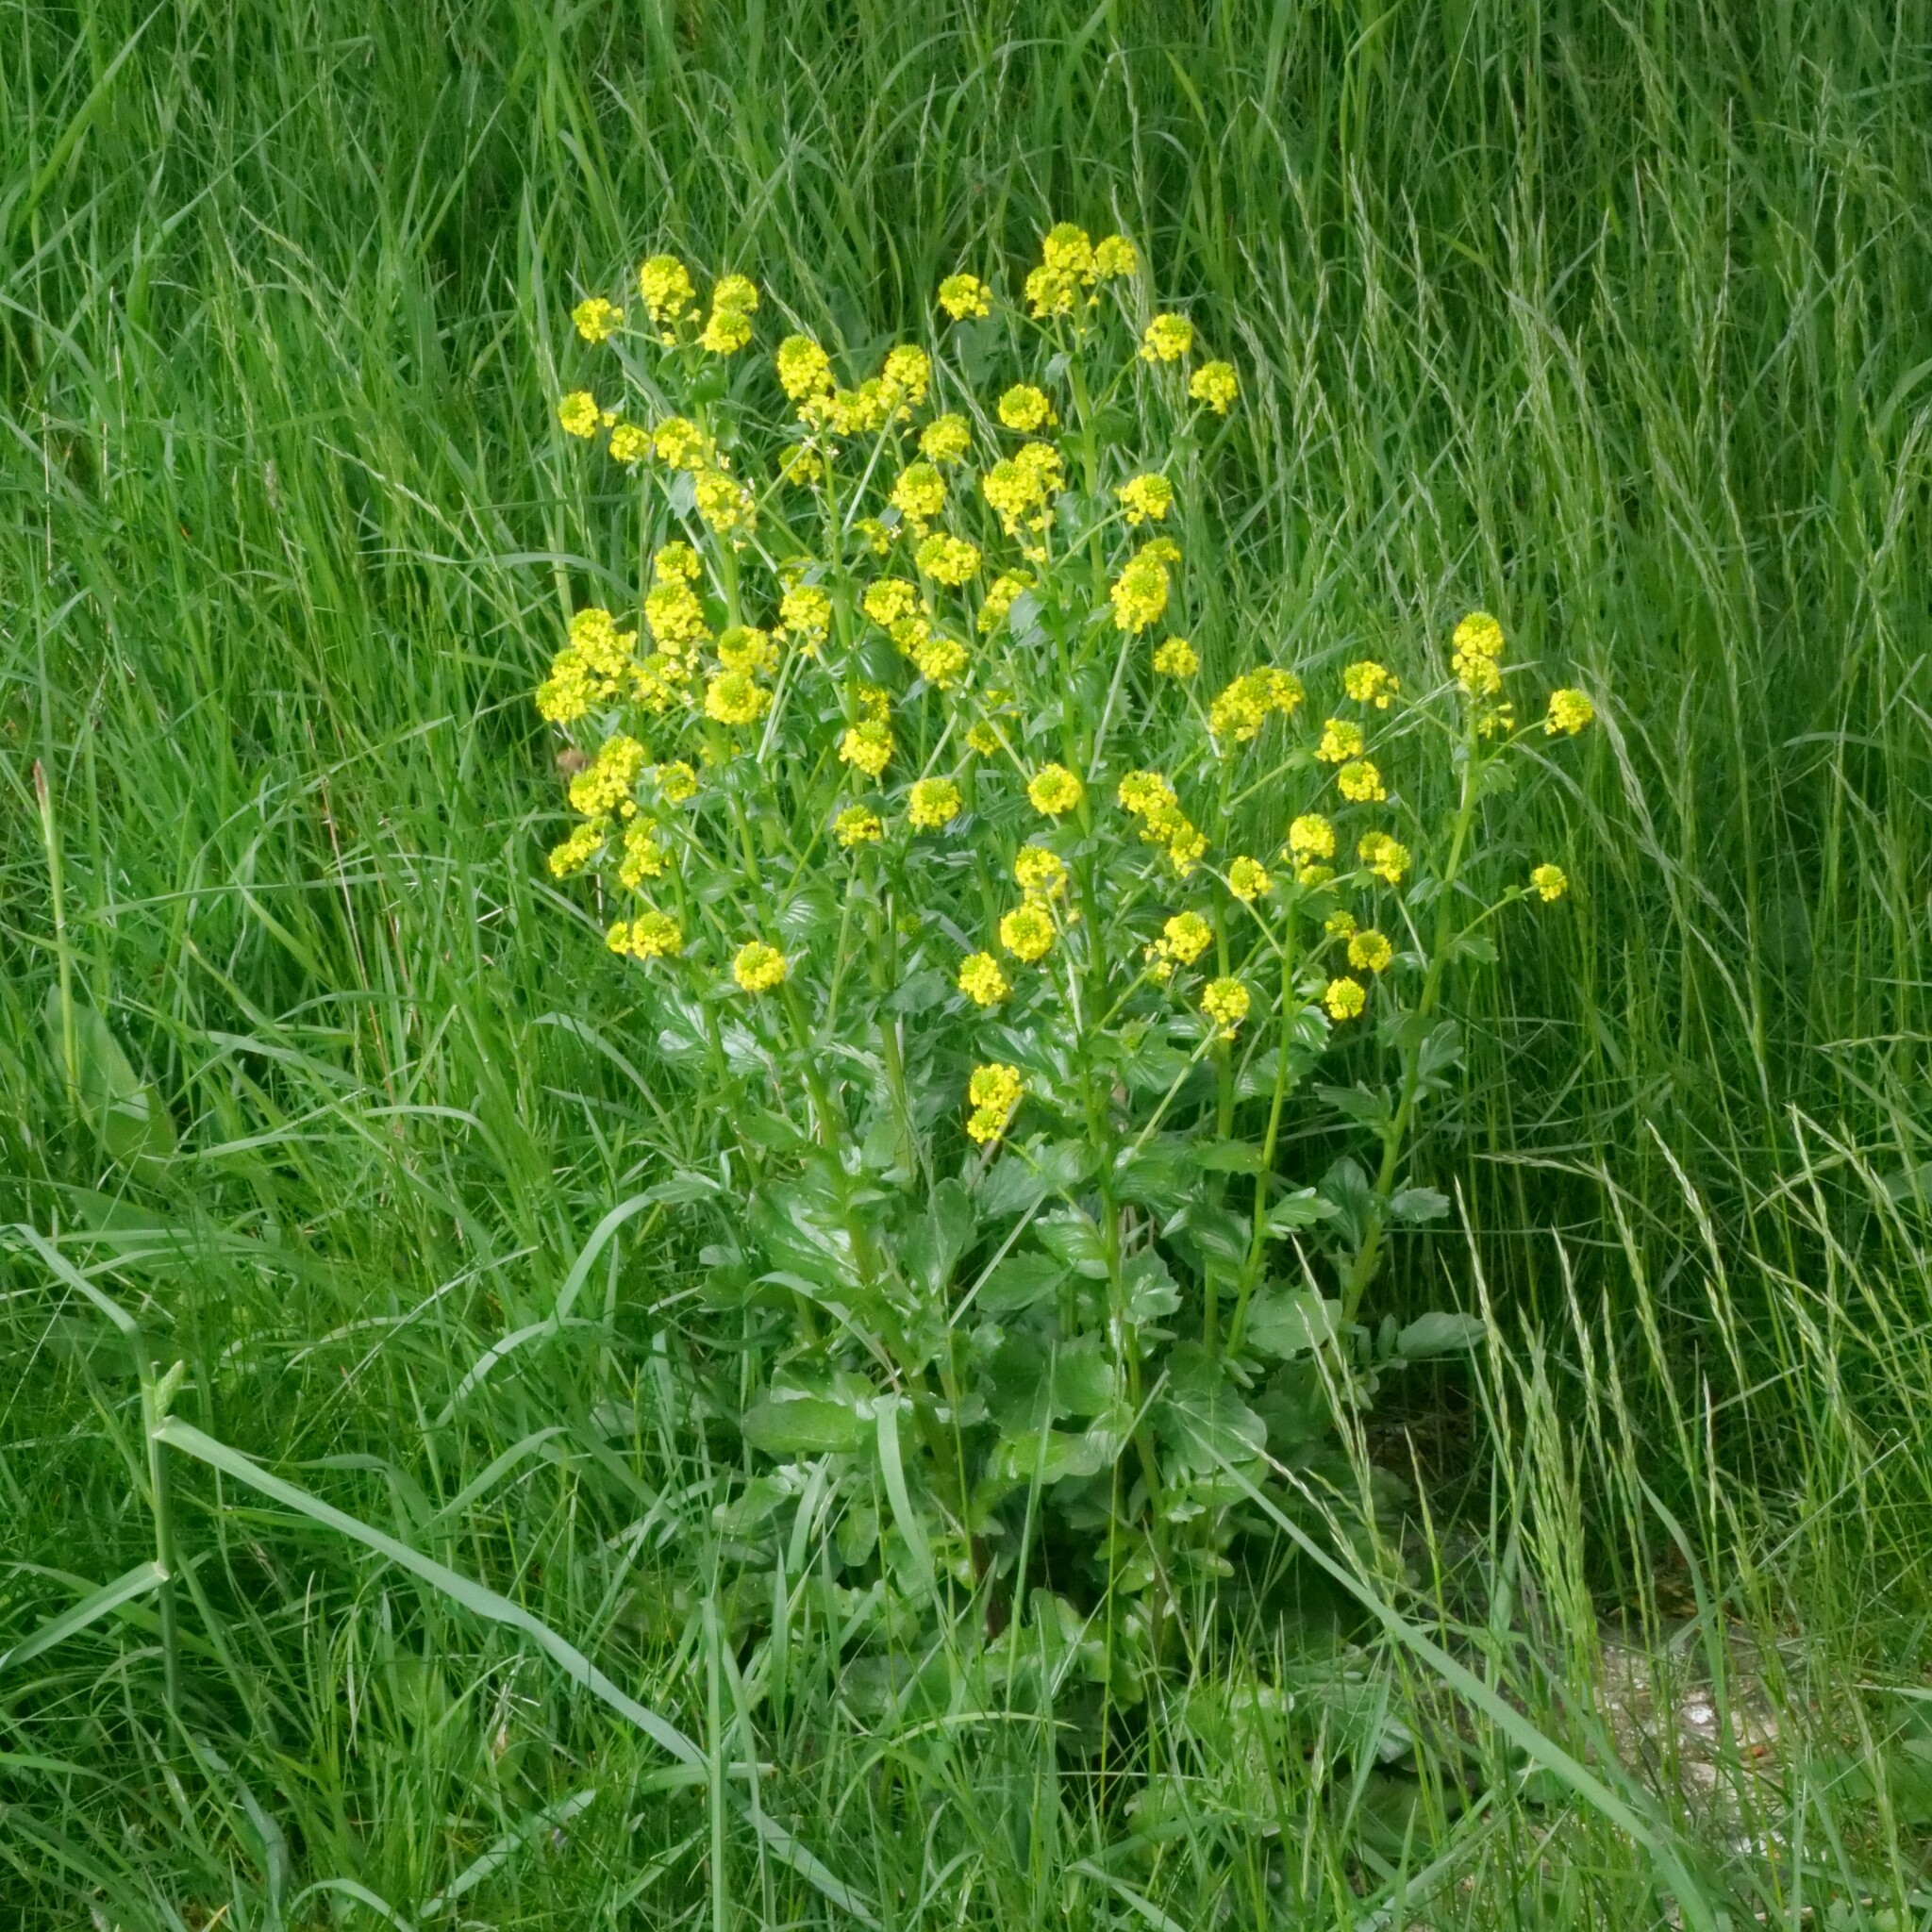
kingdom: Plantae
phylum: Tracheophyta
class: Magnoliopsida
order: Brassicales
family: Brassicaceae
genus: Barbarea
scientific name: Barbarea vulgaris
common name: Cressy-greens
